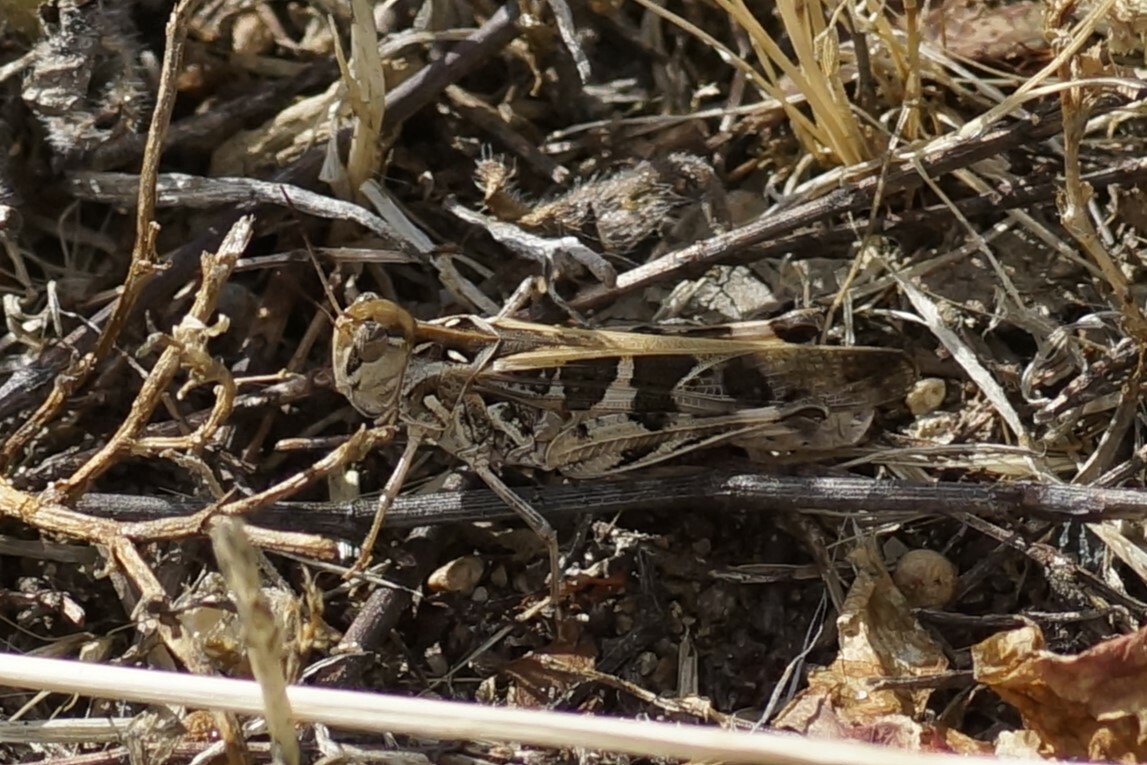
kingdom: Animalia
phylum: Arthropoda
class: Insecta
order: Orthoptera
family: Acrididae
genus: Oedaleus
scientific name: Oedaleus australis
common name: Eastern oedaleus
